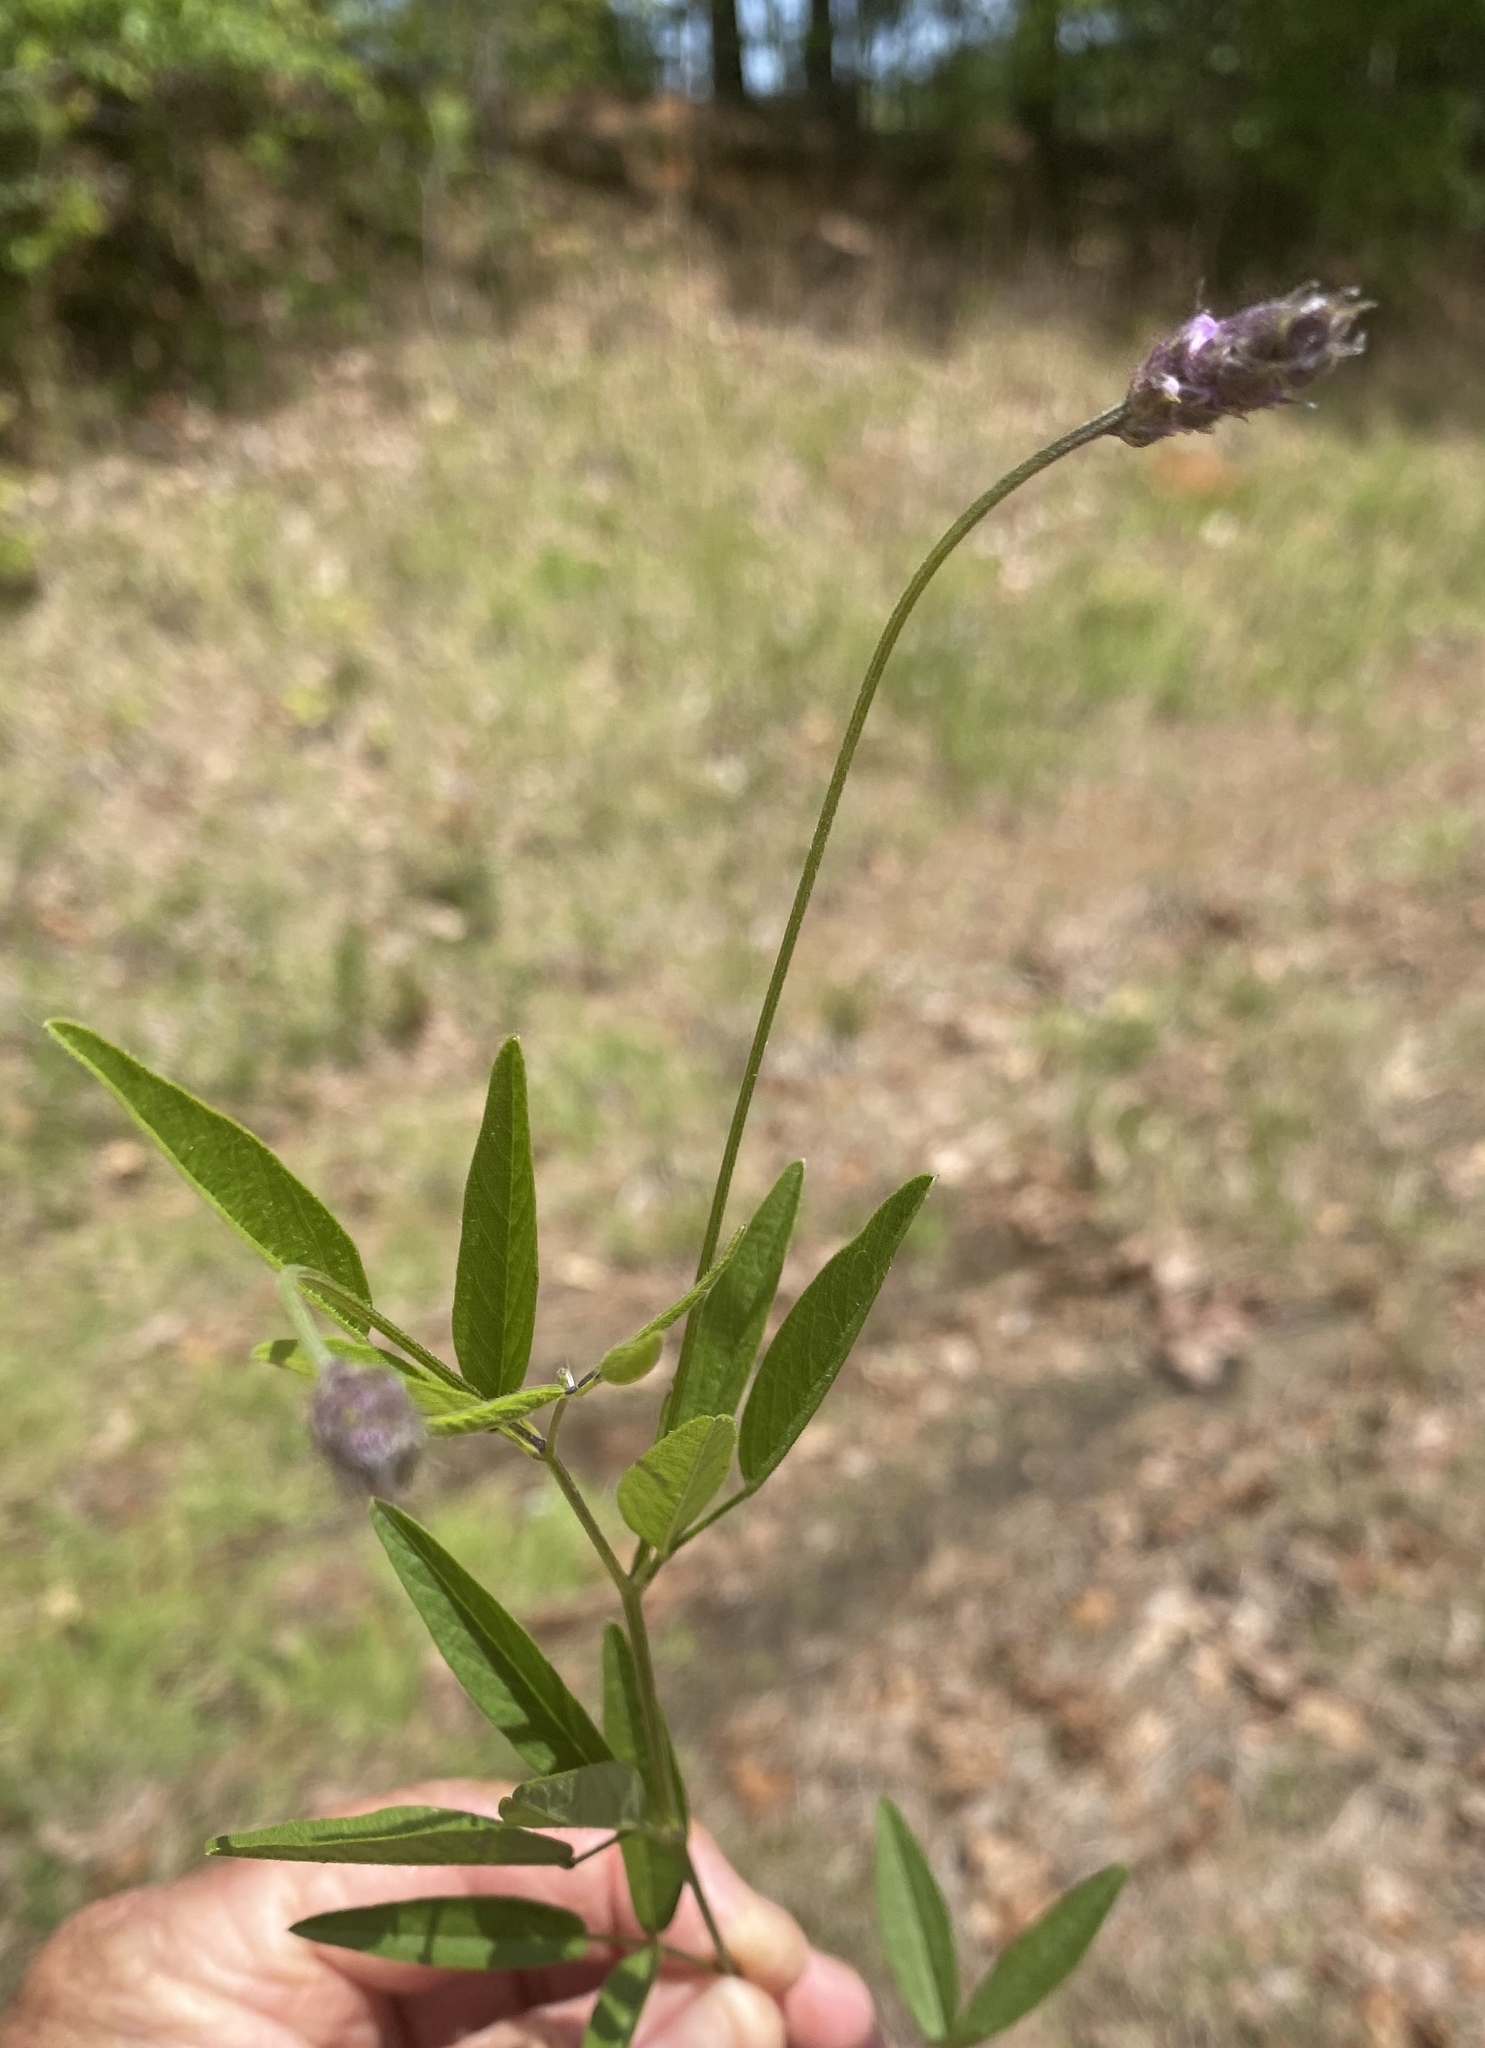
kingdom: Plantae
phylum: Tracheophyta
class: Magnoliopsida
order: Fabales
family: Fabaceae
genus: Orbexilum
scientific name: Orbexilum pedunculatum
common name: Sampson's snakeroot
